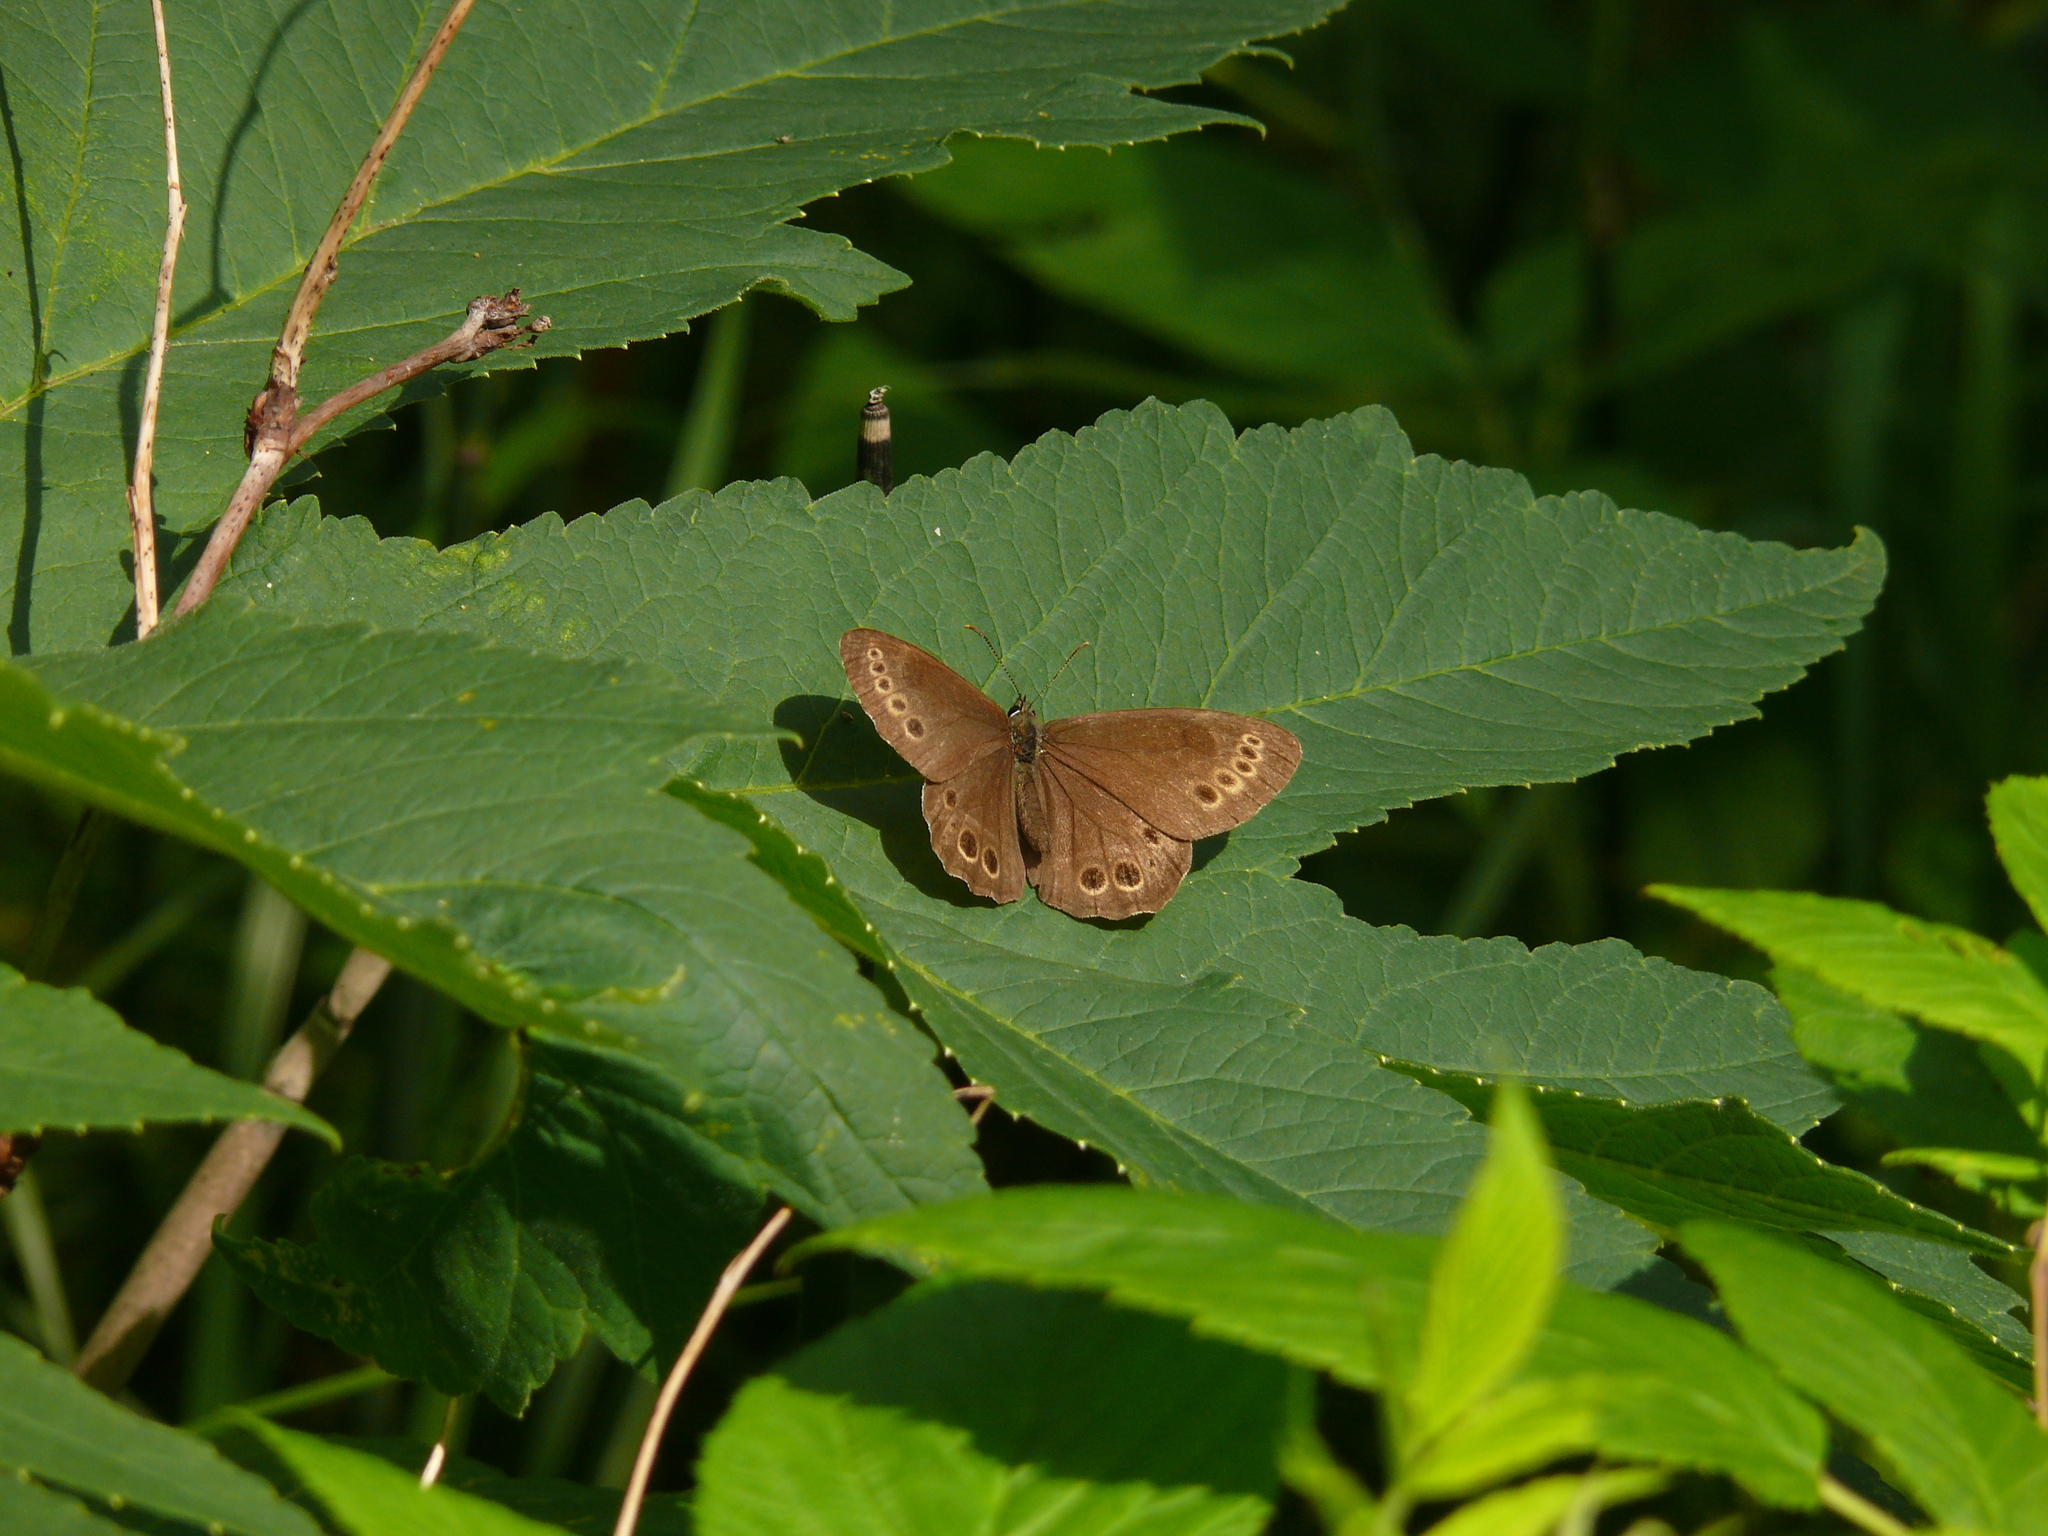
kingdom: Animalia
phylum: Arthropoda
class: Insecta
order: Lepidoptera
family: Nymphalidae
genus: Pararge
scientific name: Pararge Lopinga achine
